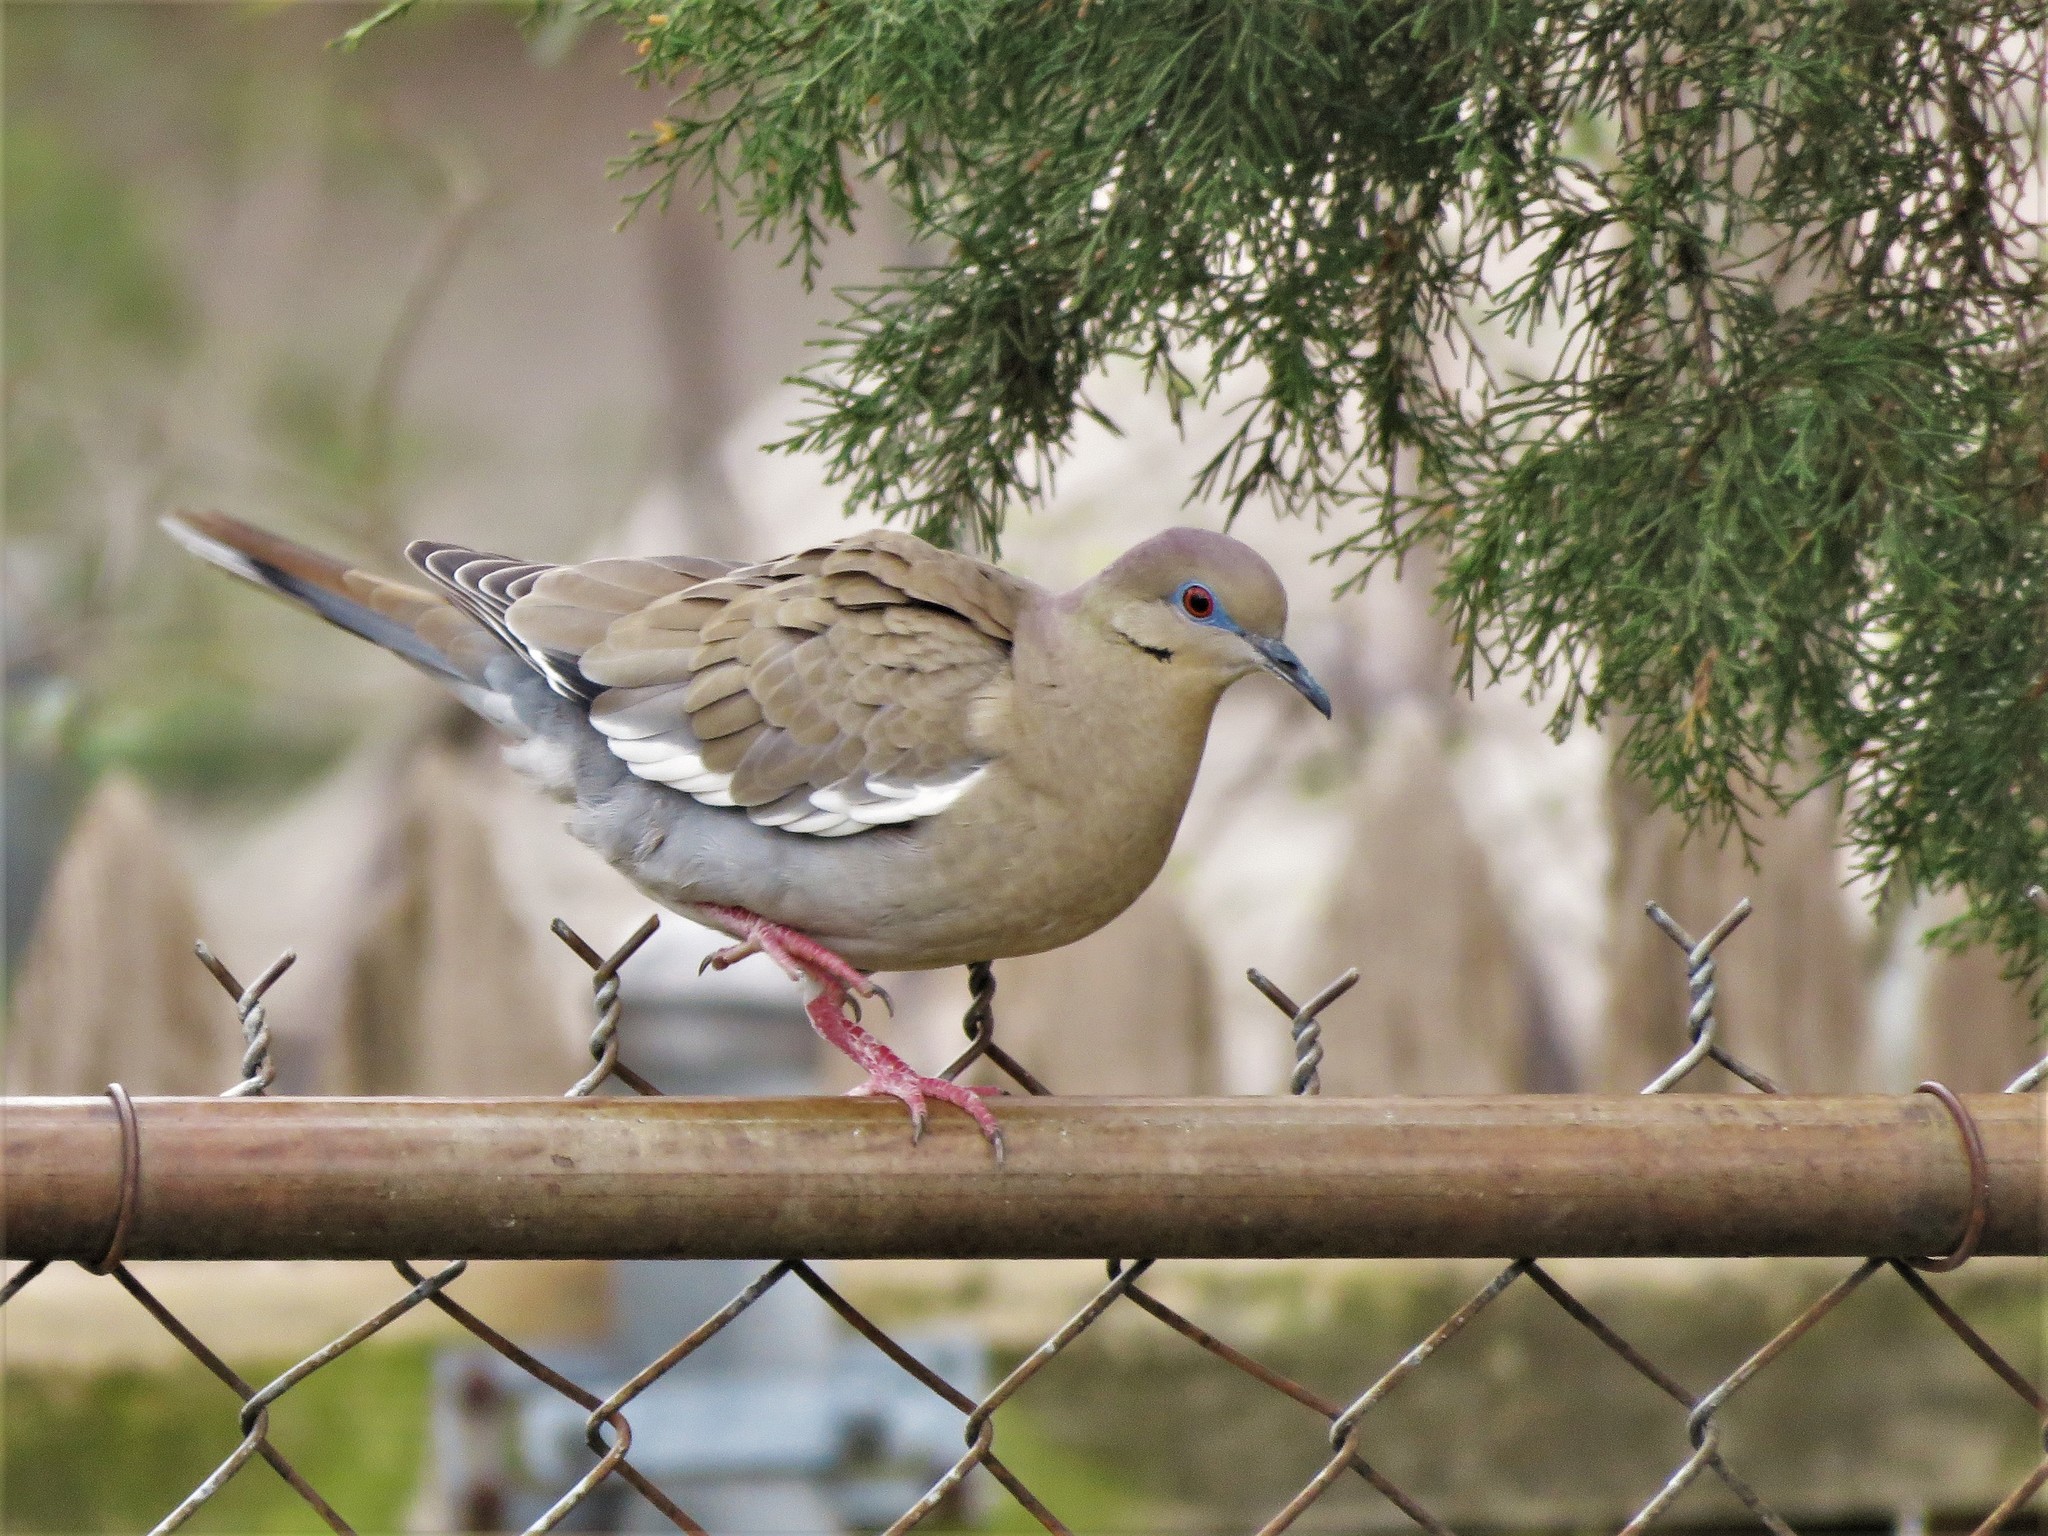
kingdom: Animalia
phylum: Chordata
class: Aves
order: Columbiformes
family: Columbidae
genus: Zenaida
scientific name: Zenaida asiatica
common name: White-winged dove
